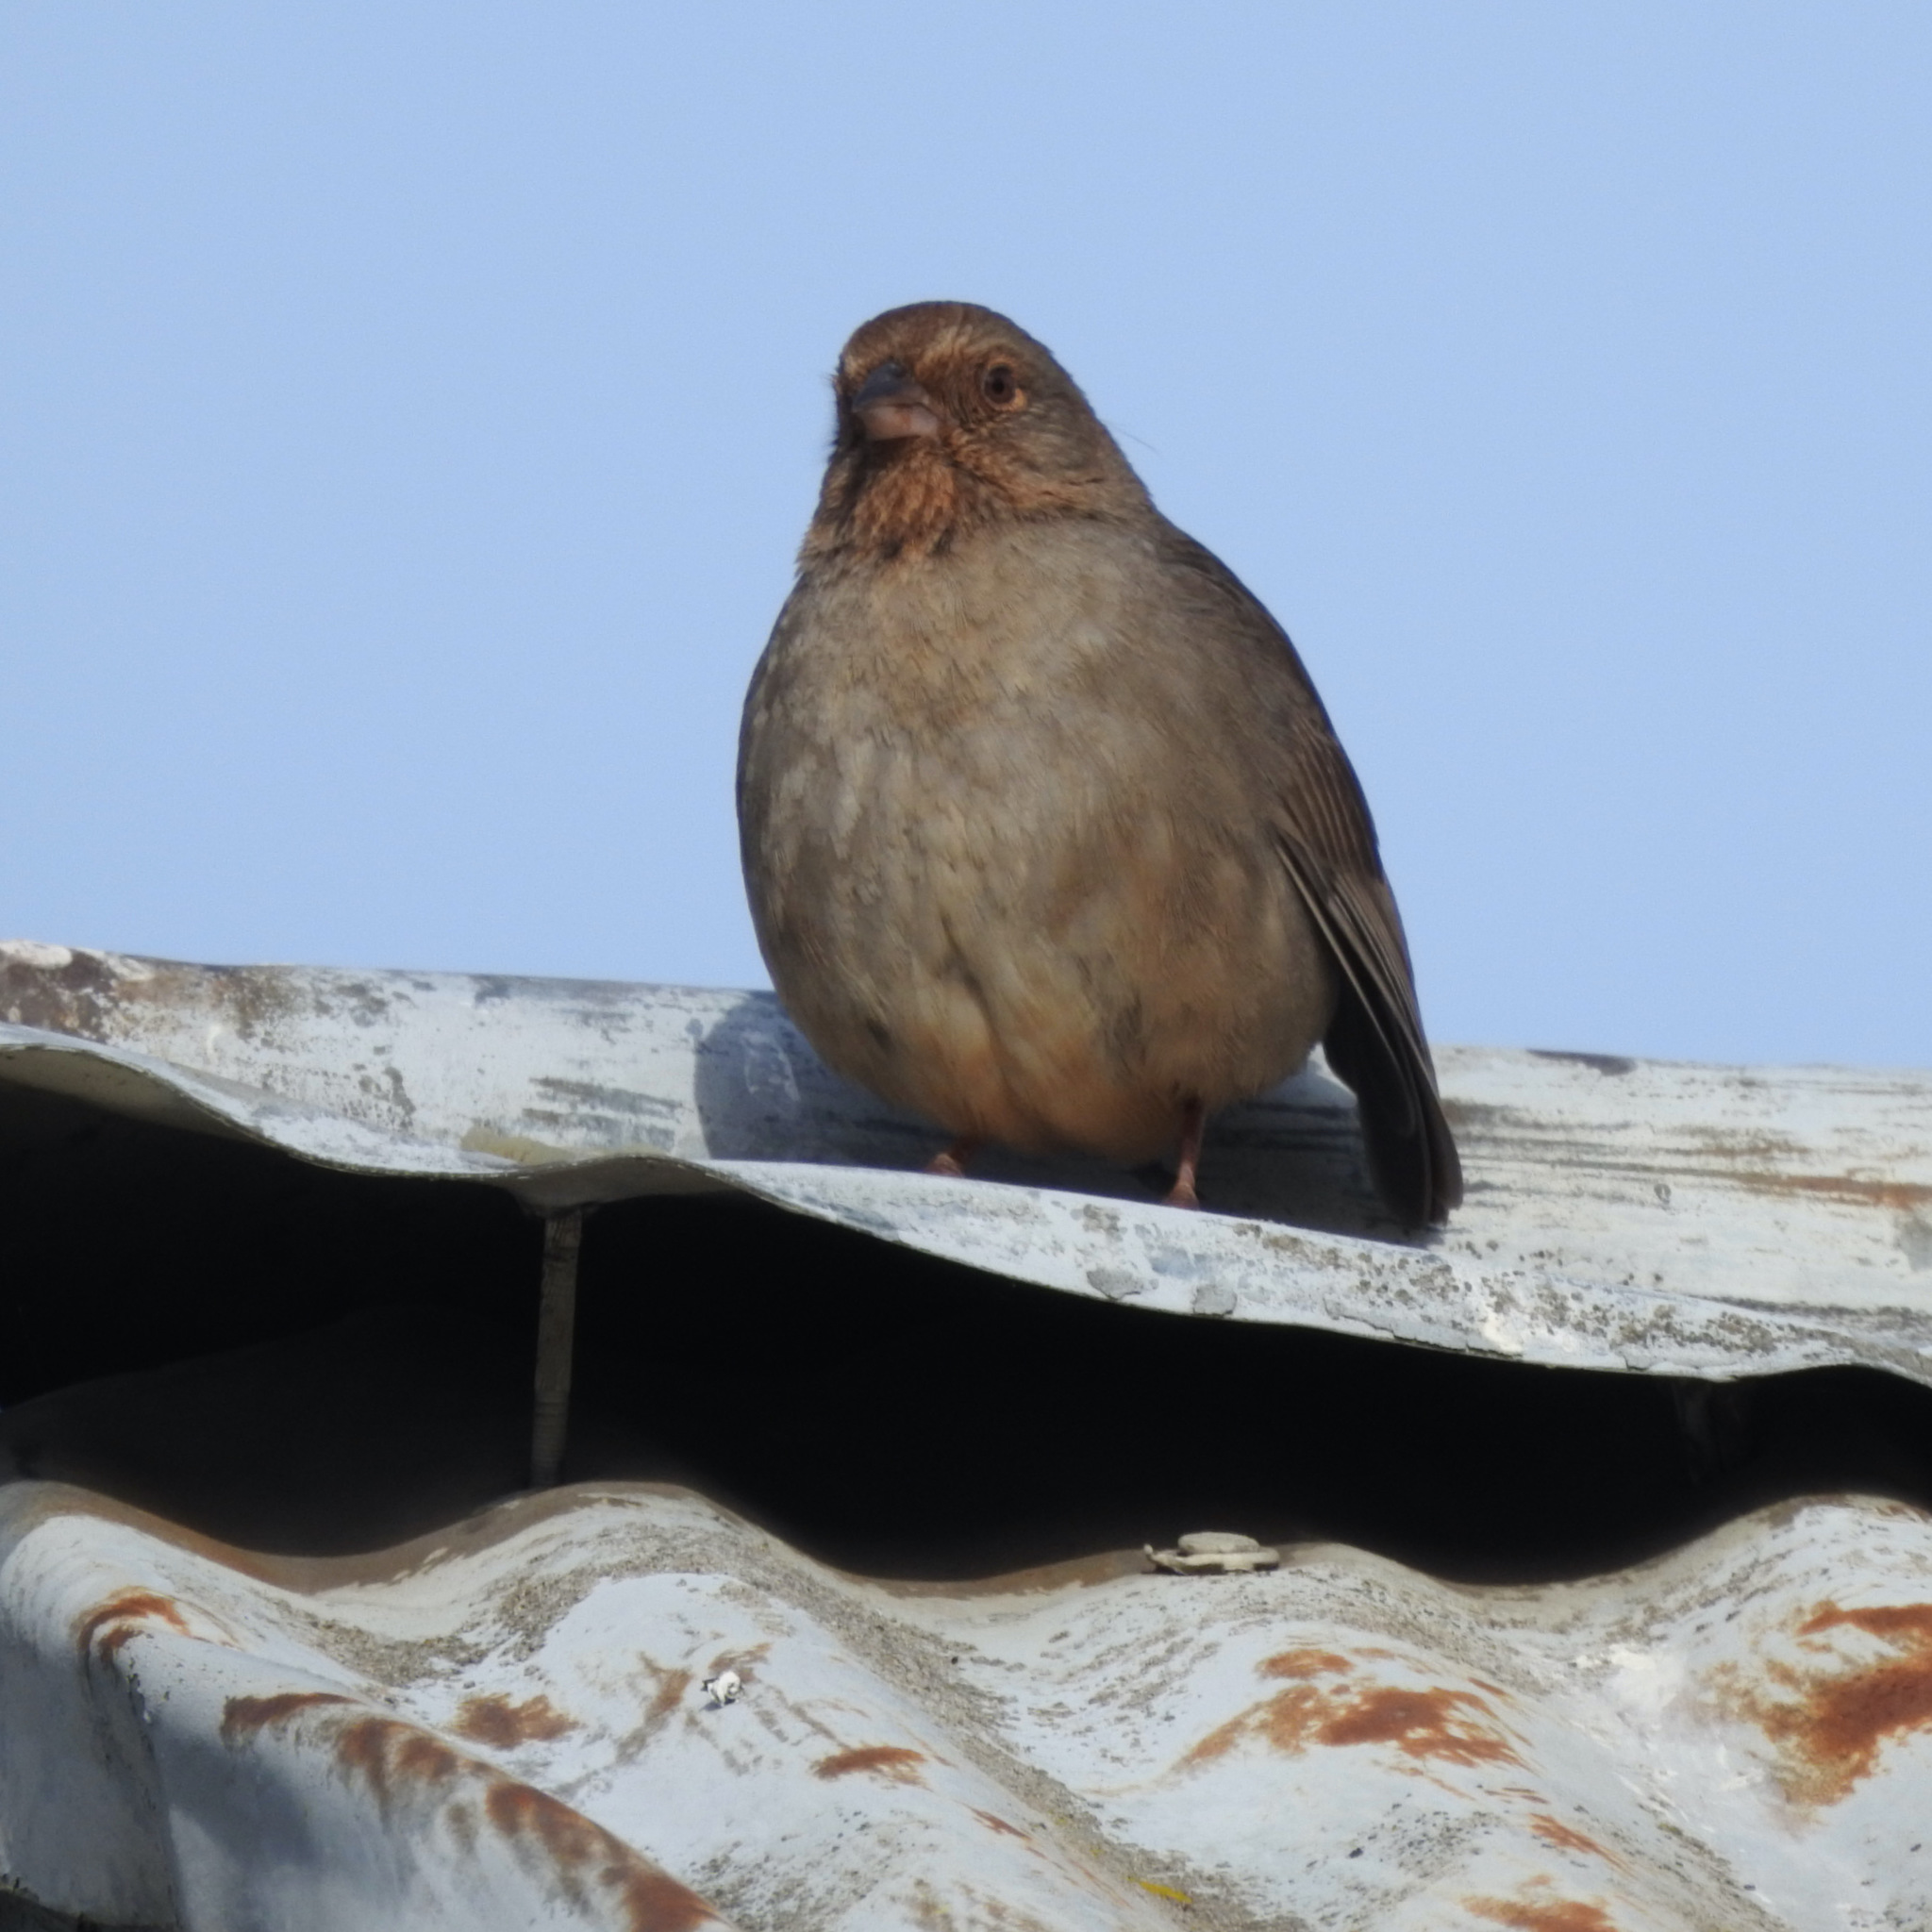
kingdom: Animalia
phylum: Chordata
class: Aves
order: Passeriformes
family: Passerellidae
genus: Melozone
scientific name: Melozone crissalis
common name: California towhee
